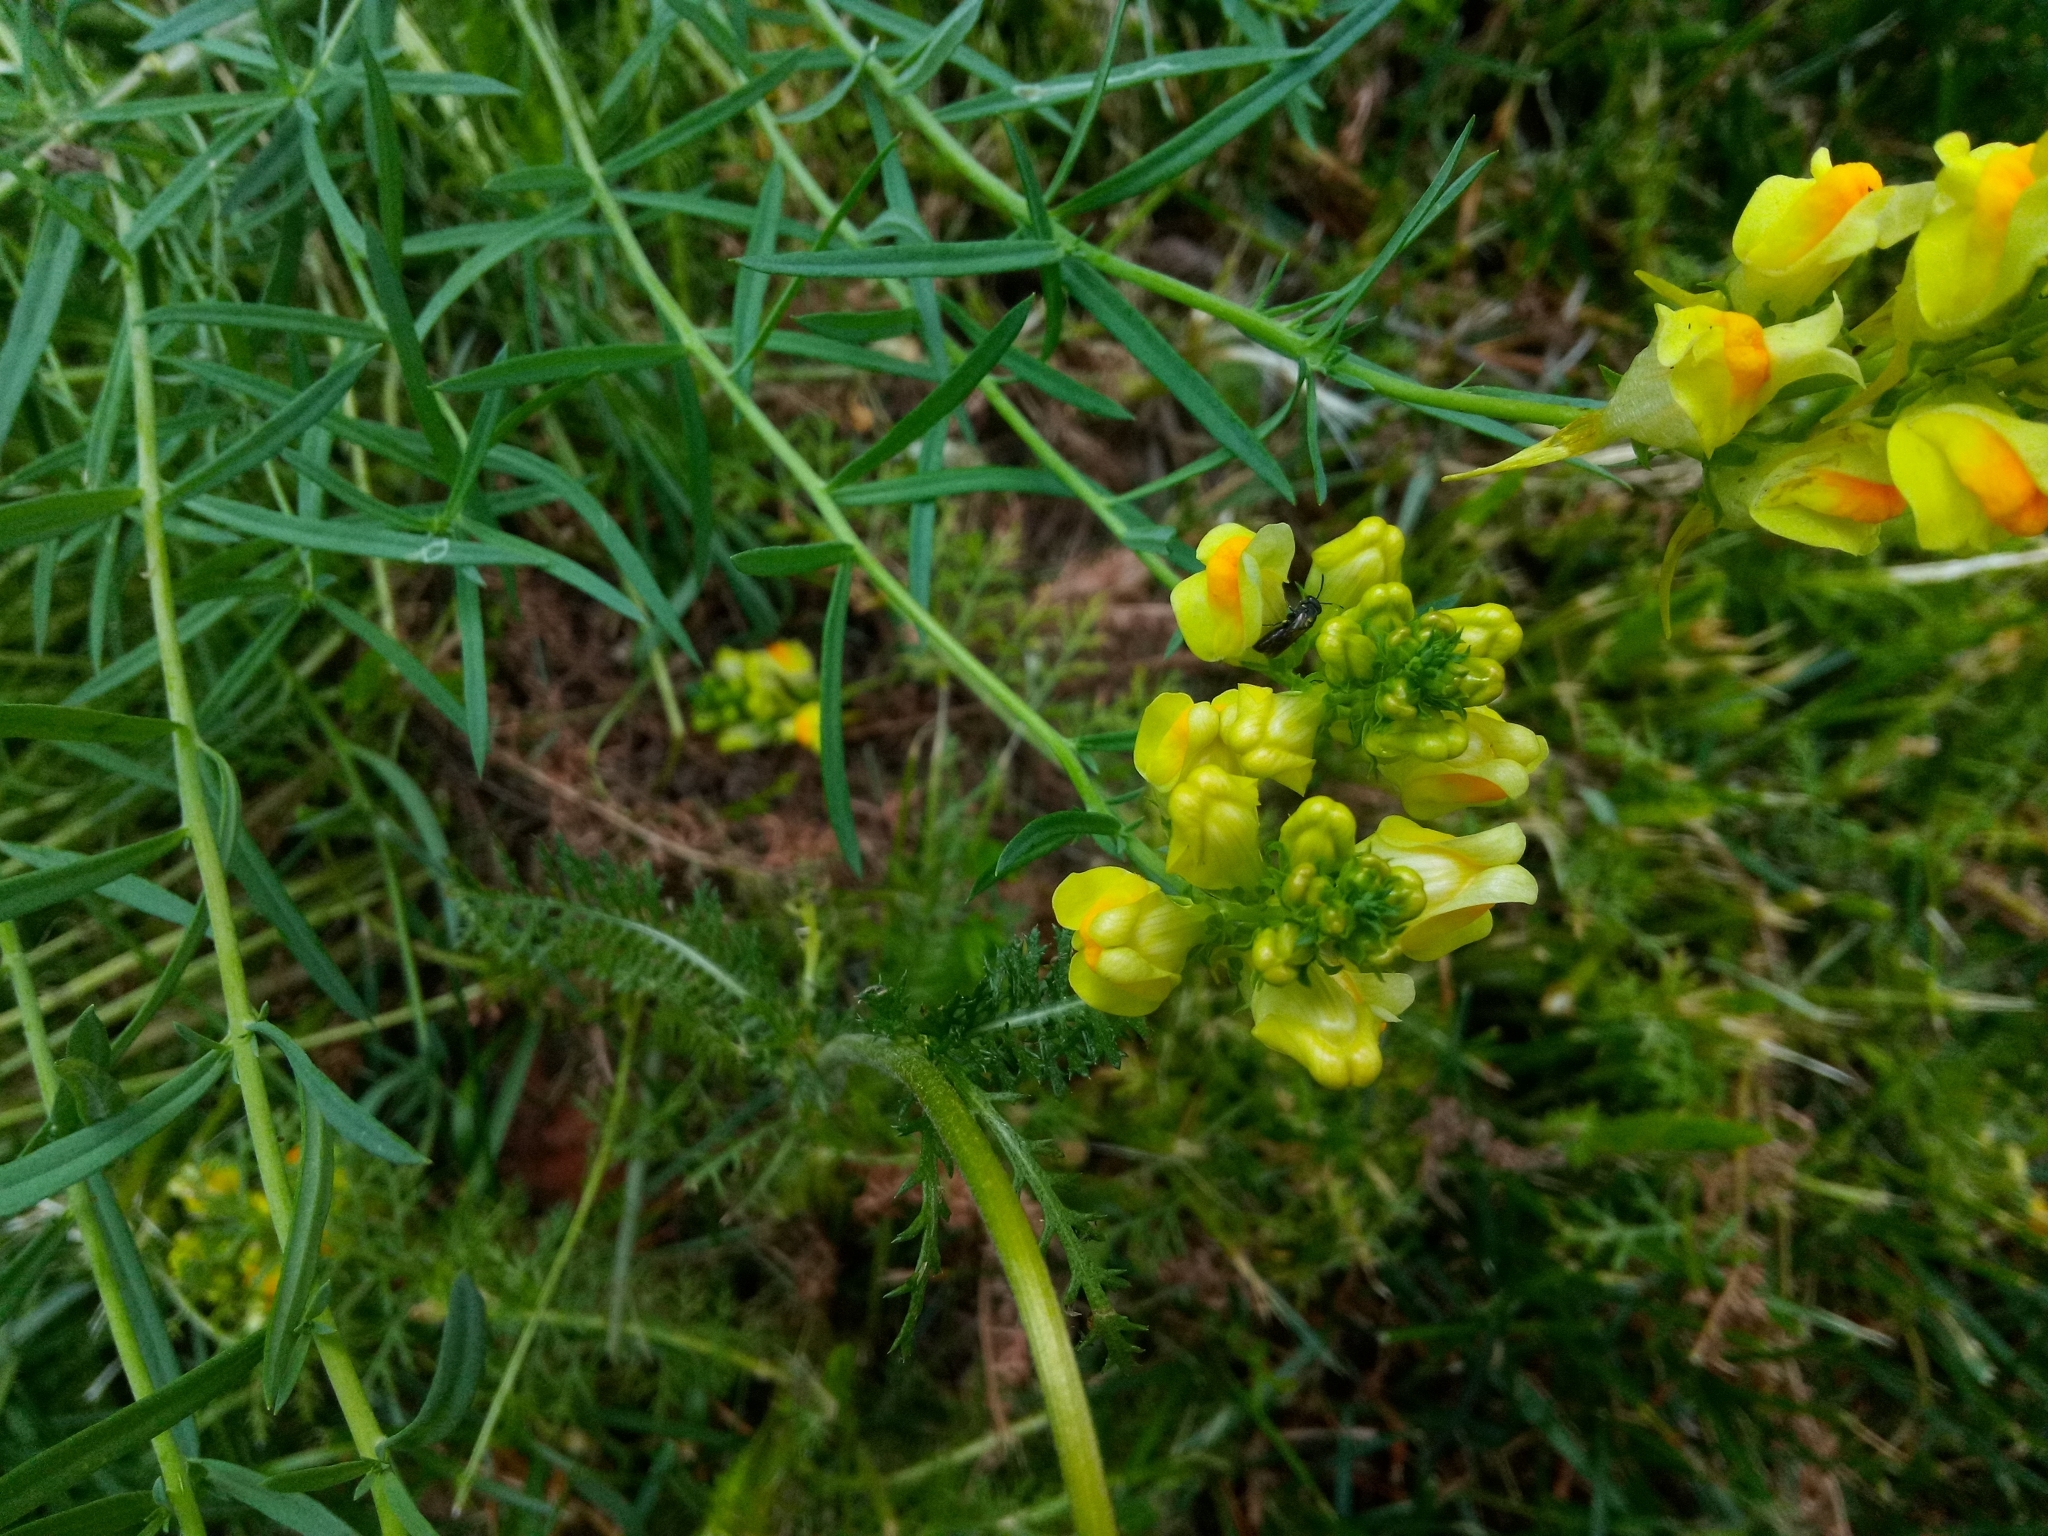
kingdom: Plantae
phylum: Tracheophyta
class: Magnoliopsida
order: Lamiales
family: Plantaginaceae
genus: Linaria
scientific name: Linaria vulgaris
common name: Butter and eggs
